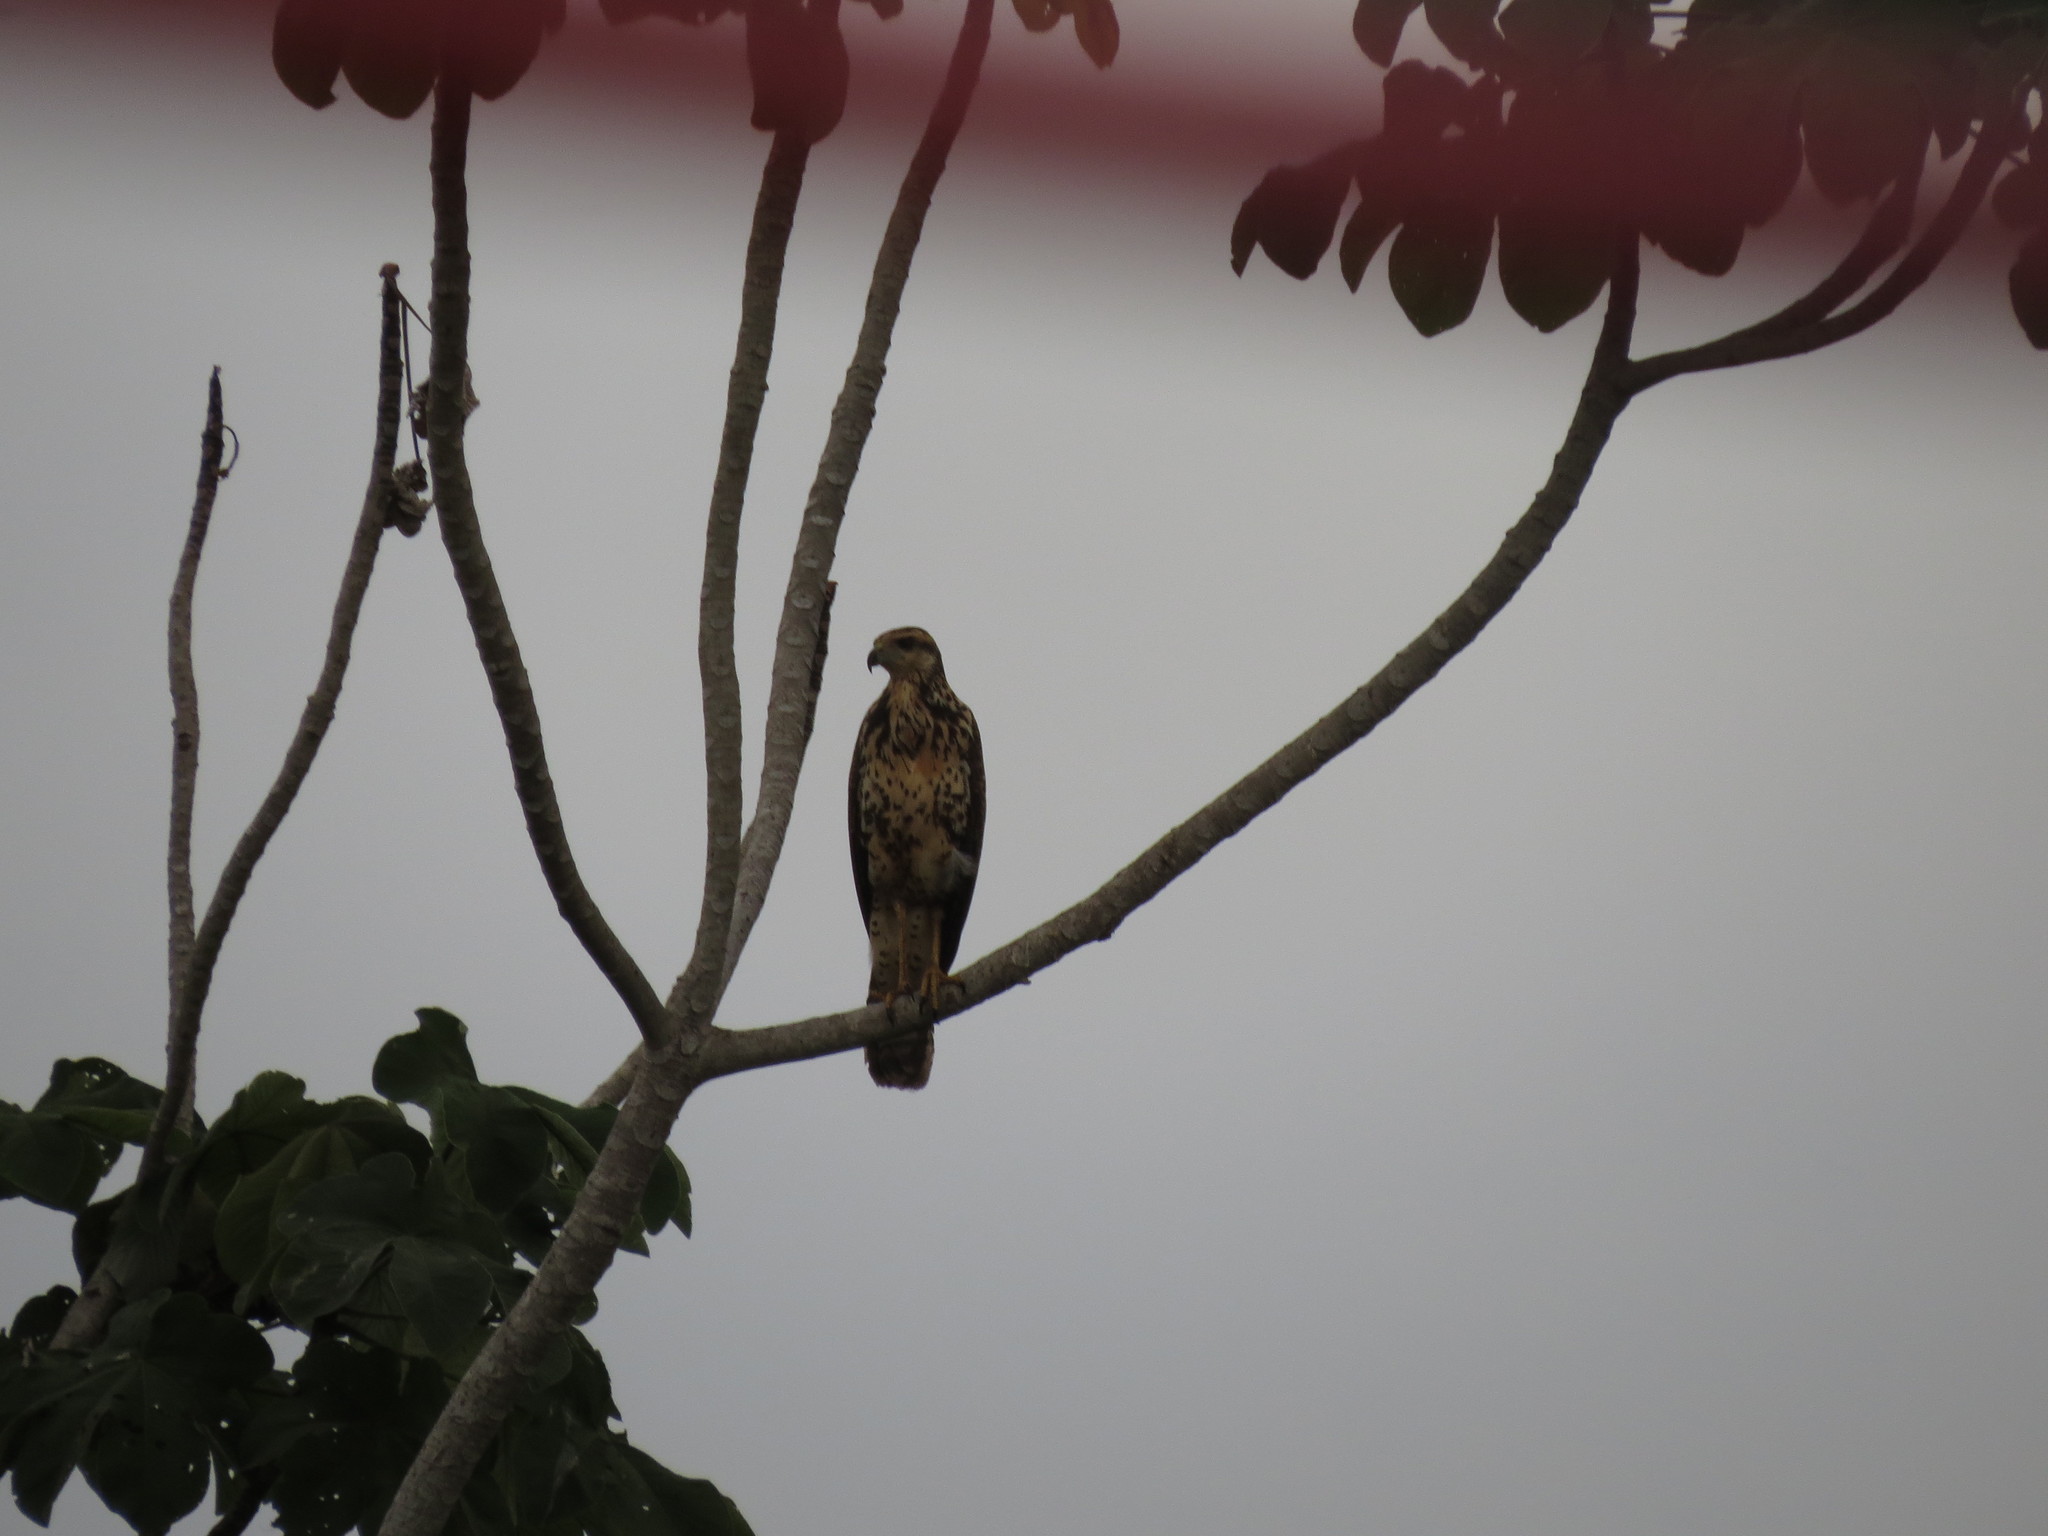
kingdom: Animalia
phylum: Chordata
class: Aves
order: Accipitriformes
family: Accipitridae
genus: Buteogallus
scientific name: Buteogallus urubitinga
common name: Great black hawk
